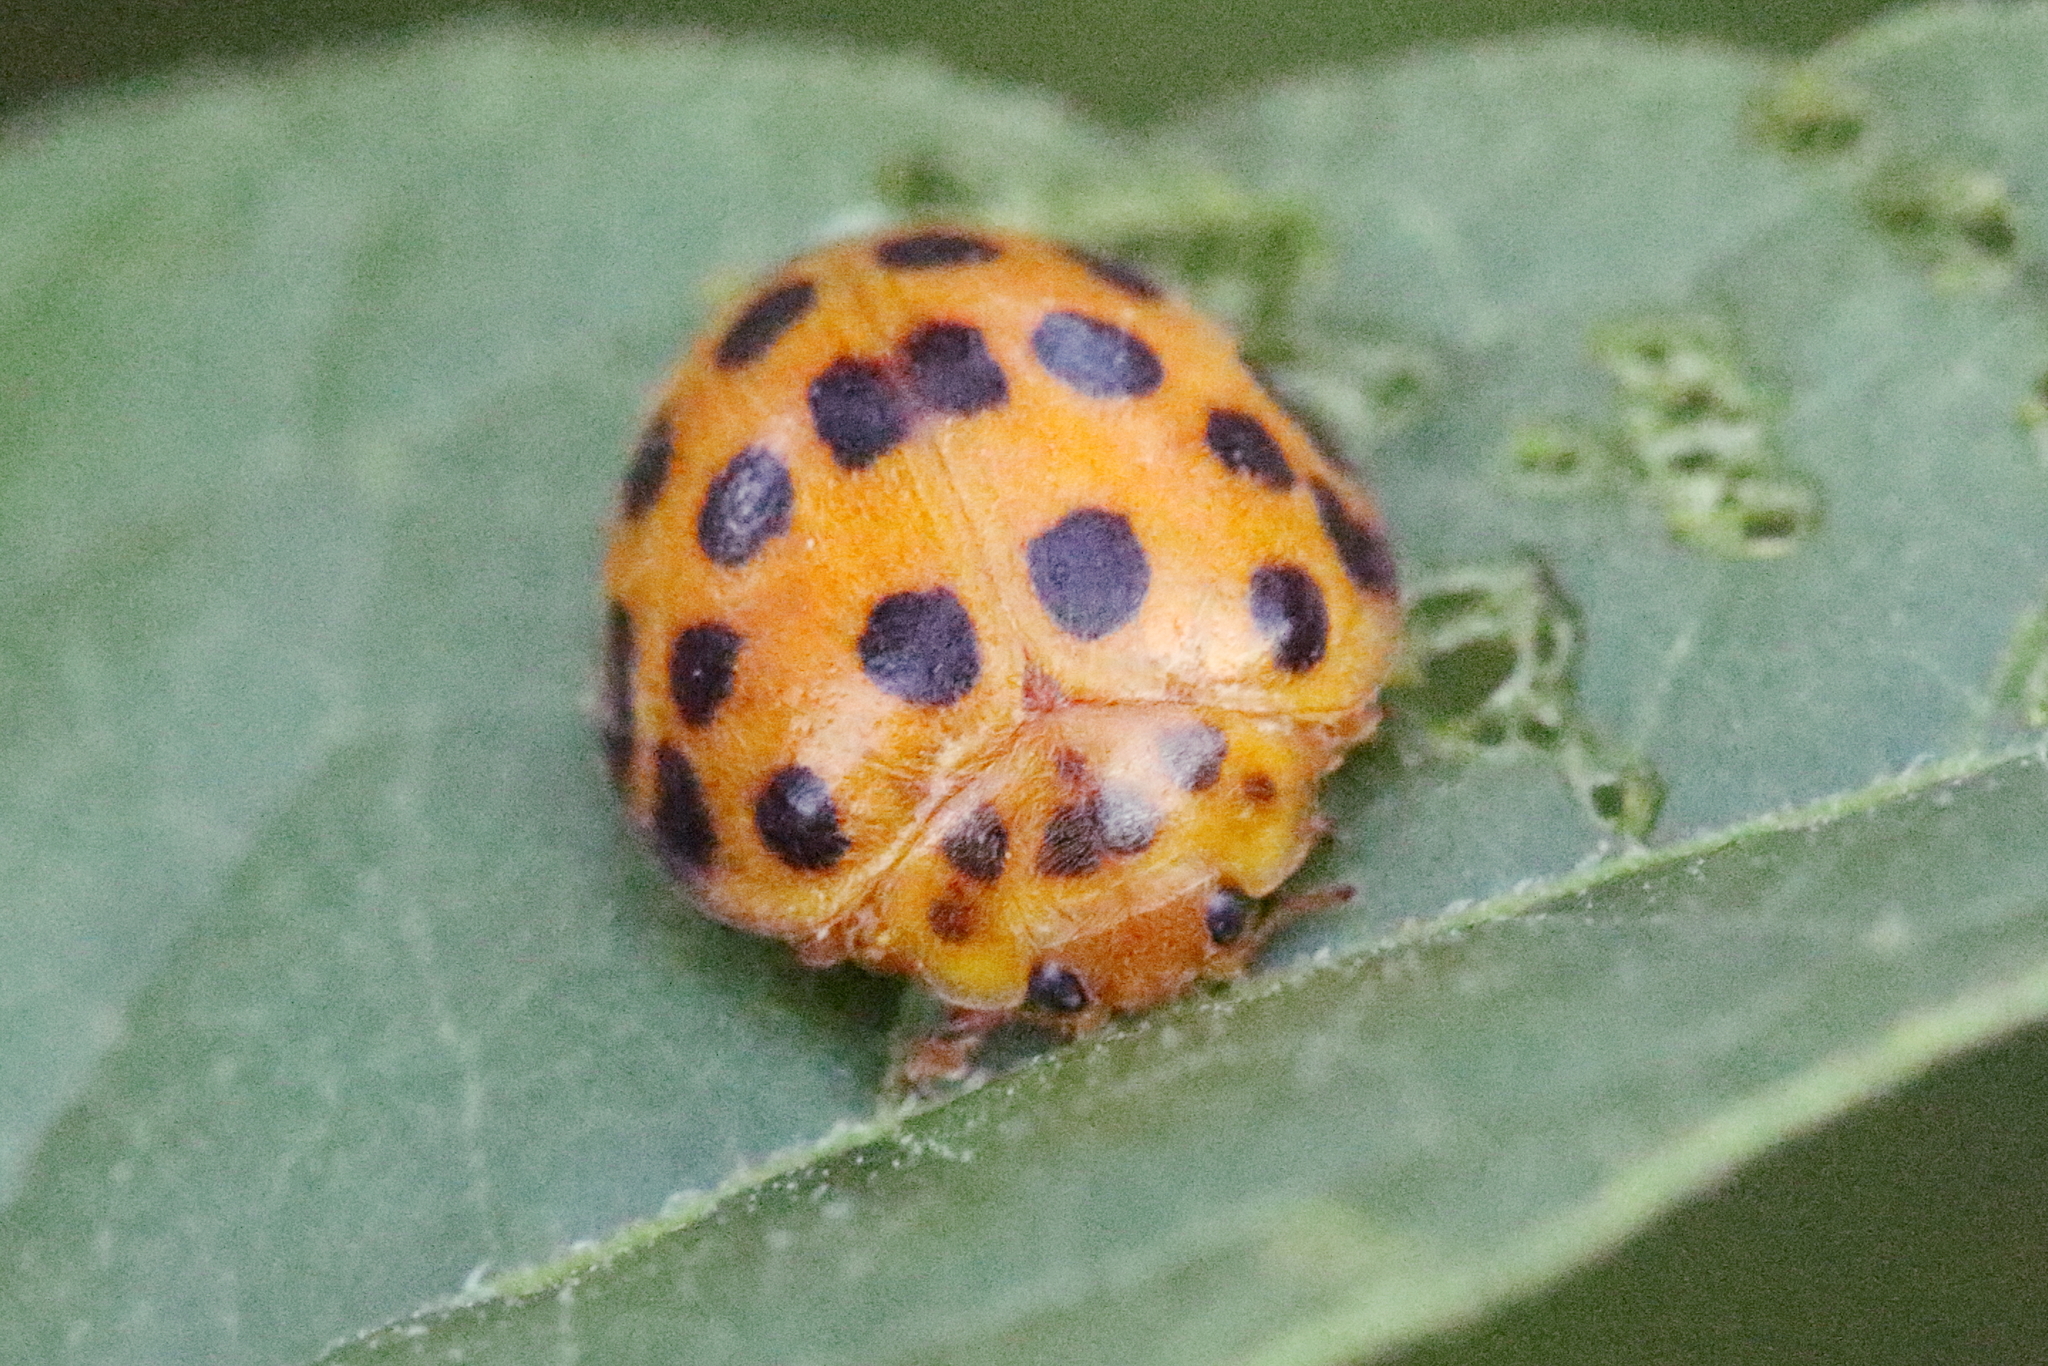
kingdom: Animalia
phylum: Arthropoda
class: Insecta
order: Coleoptera
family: Coccinellidae
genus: Henosepilachna
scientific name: Henosepilachna vigintioctopunctata
